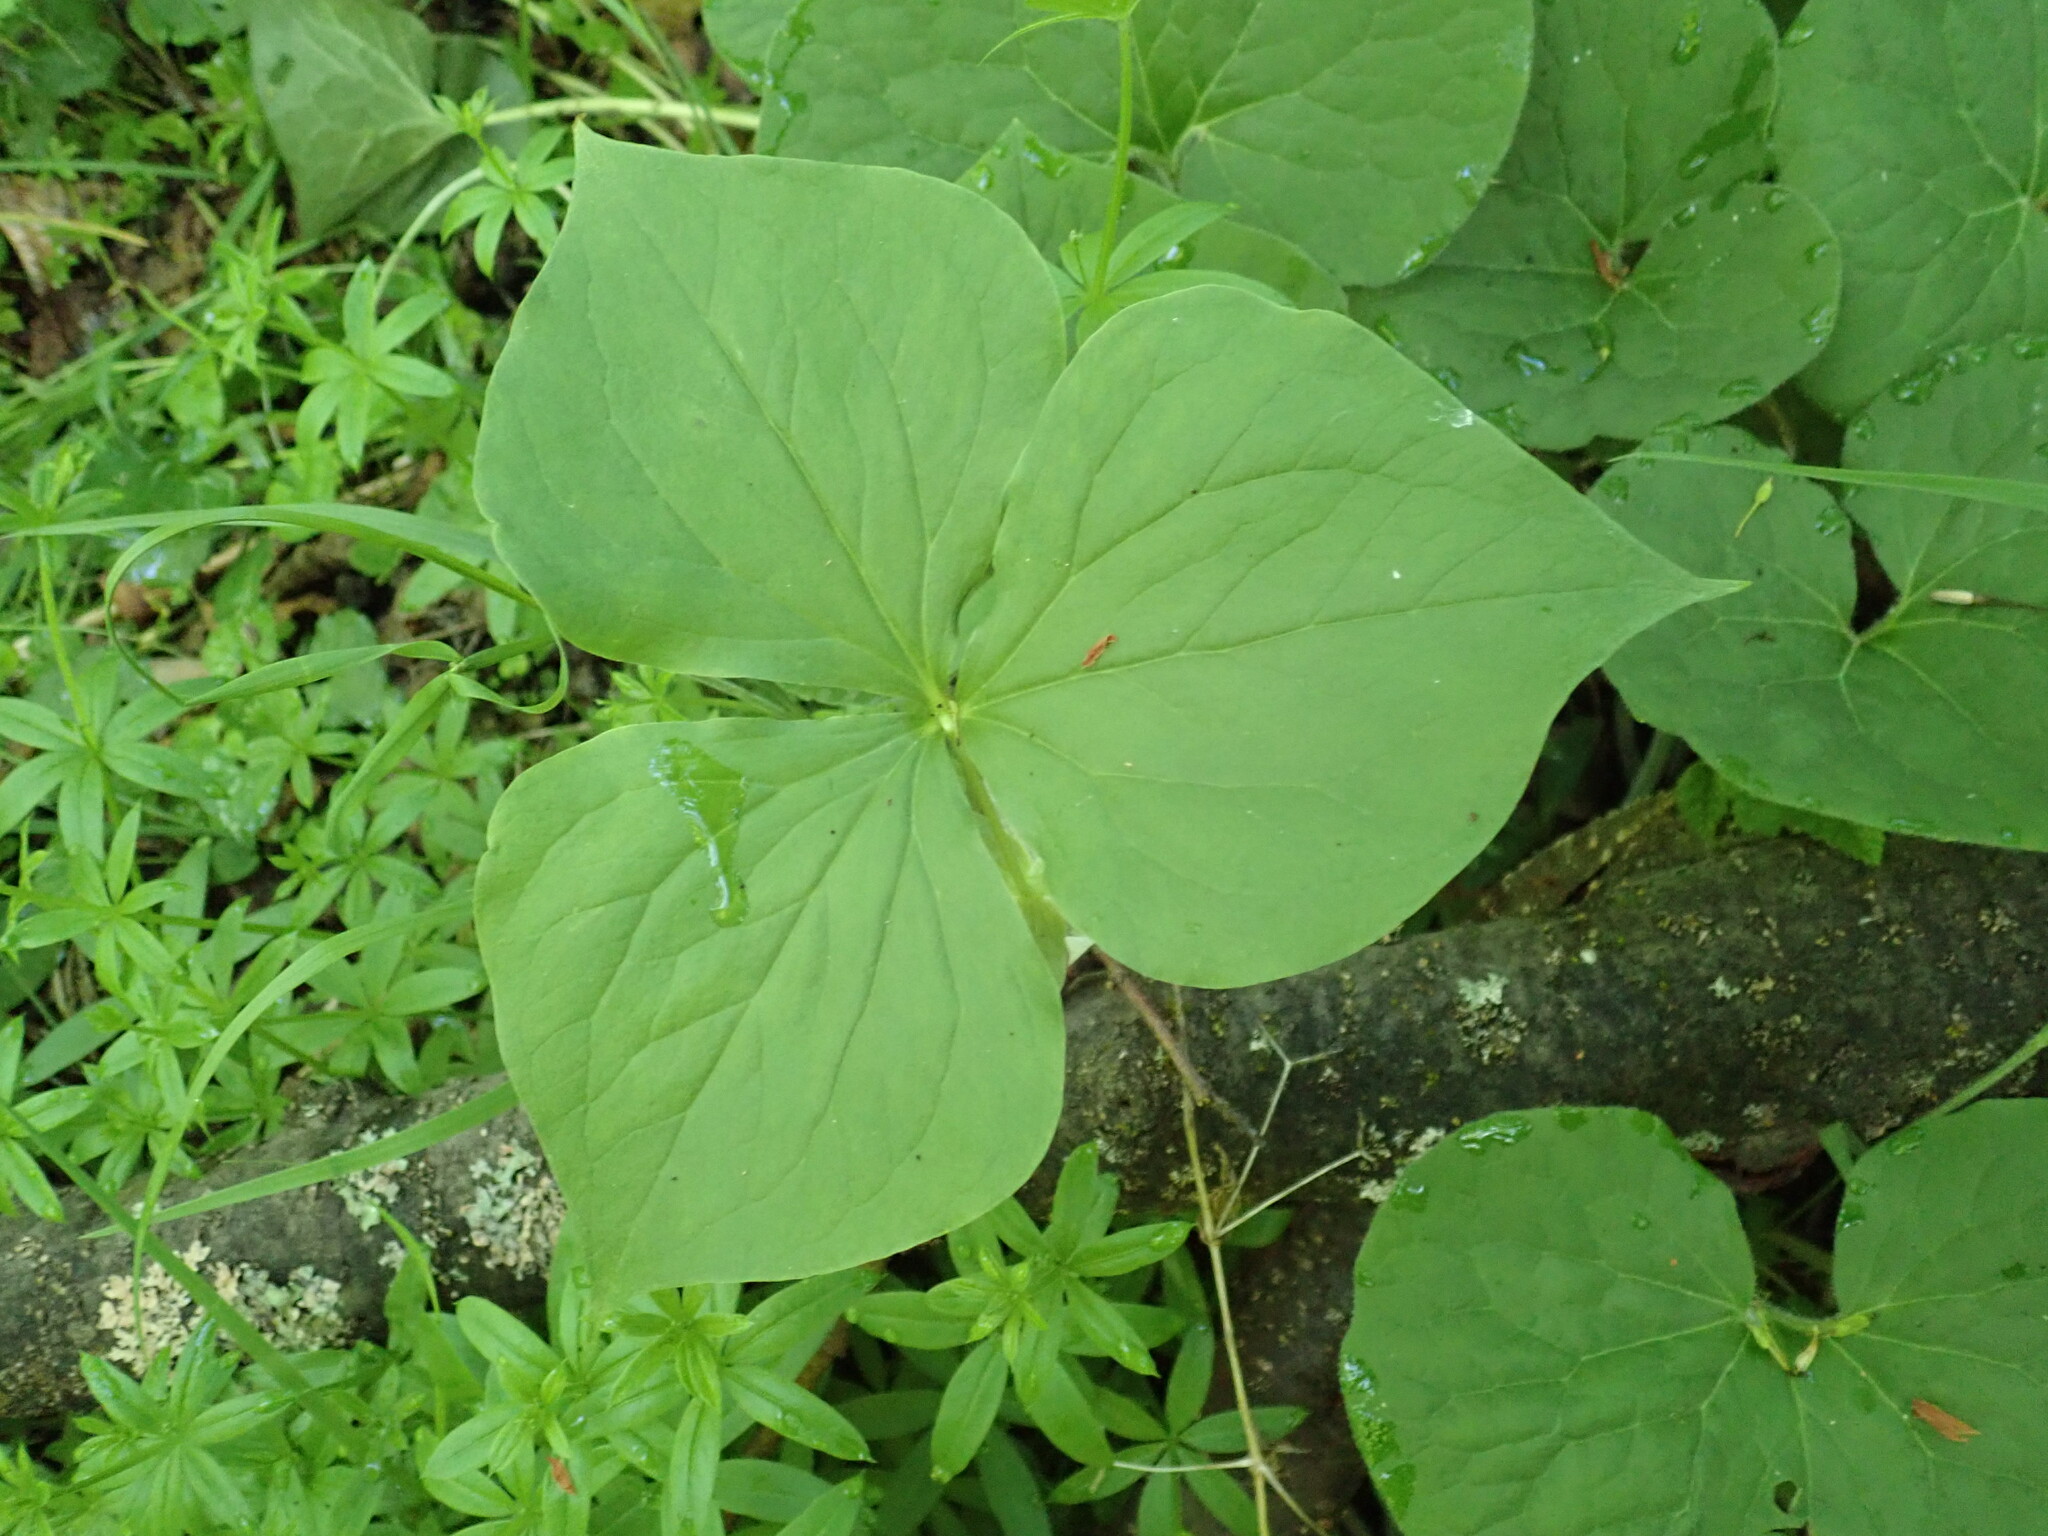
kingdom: Plantae
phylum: Tracheophyta
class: Liliopsida
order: Liliales
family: Melanthiaceae
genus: Trillium
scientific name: Trillium cernuum
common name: Nodding trillium
